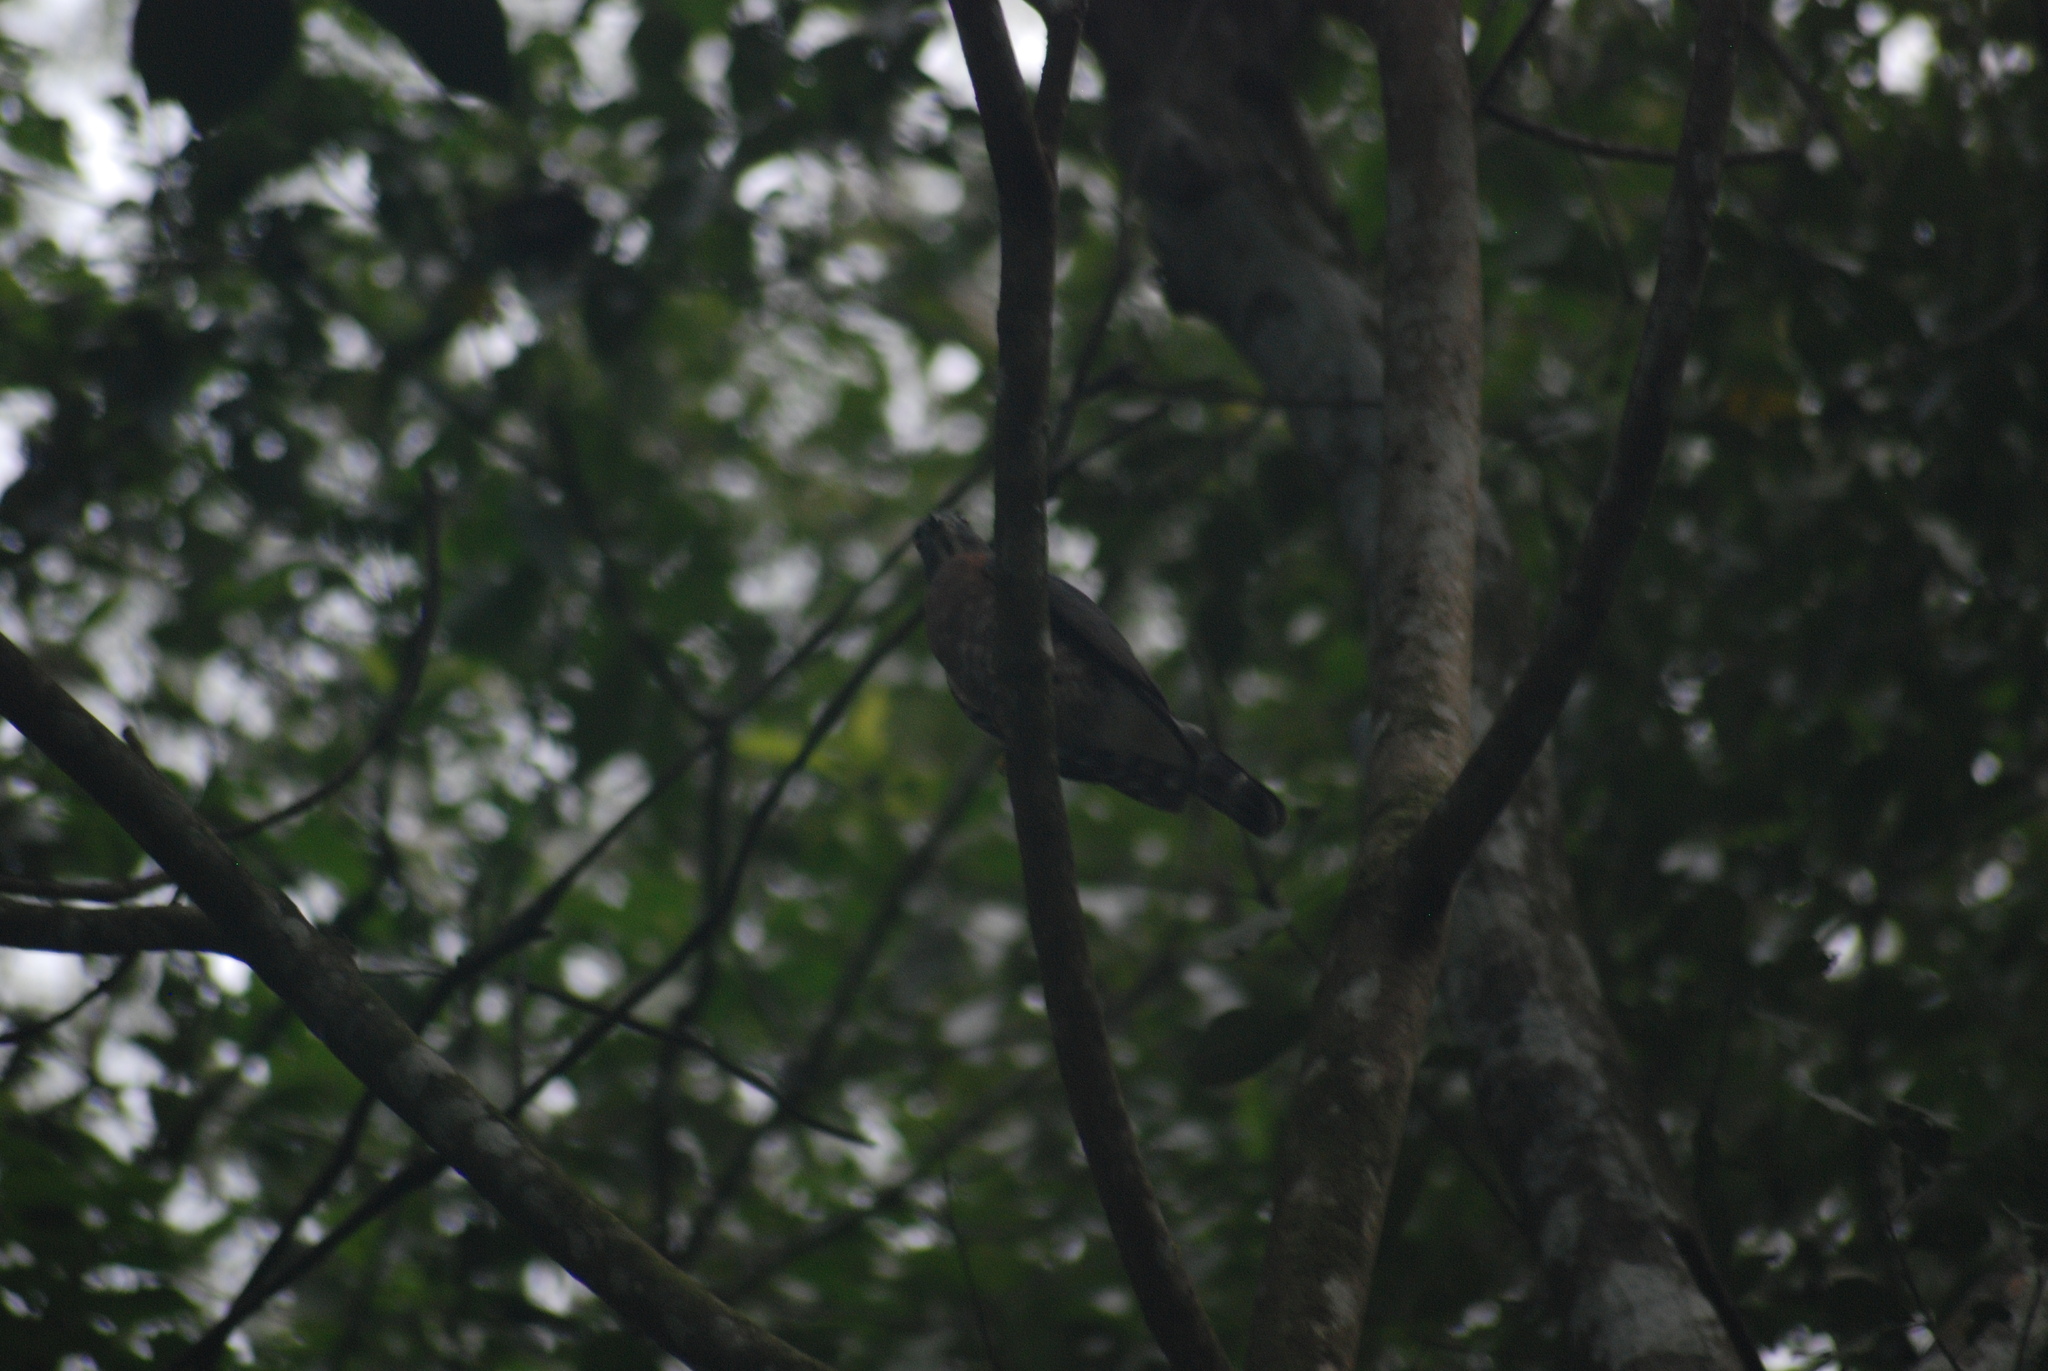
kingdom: Animalia
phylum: Chordata
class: Aves
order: Accipitriformes
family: Accipitridae
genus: Harpagus
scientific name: Harpagus bidentatus
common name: Double-toothed kite
